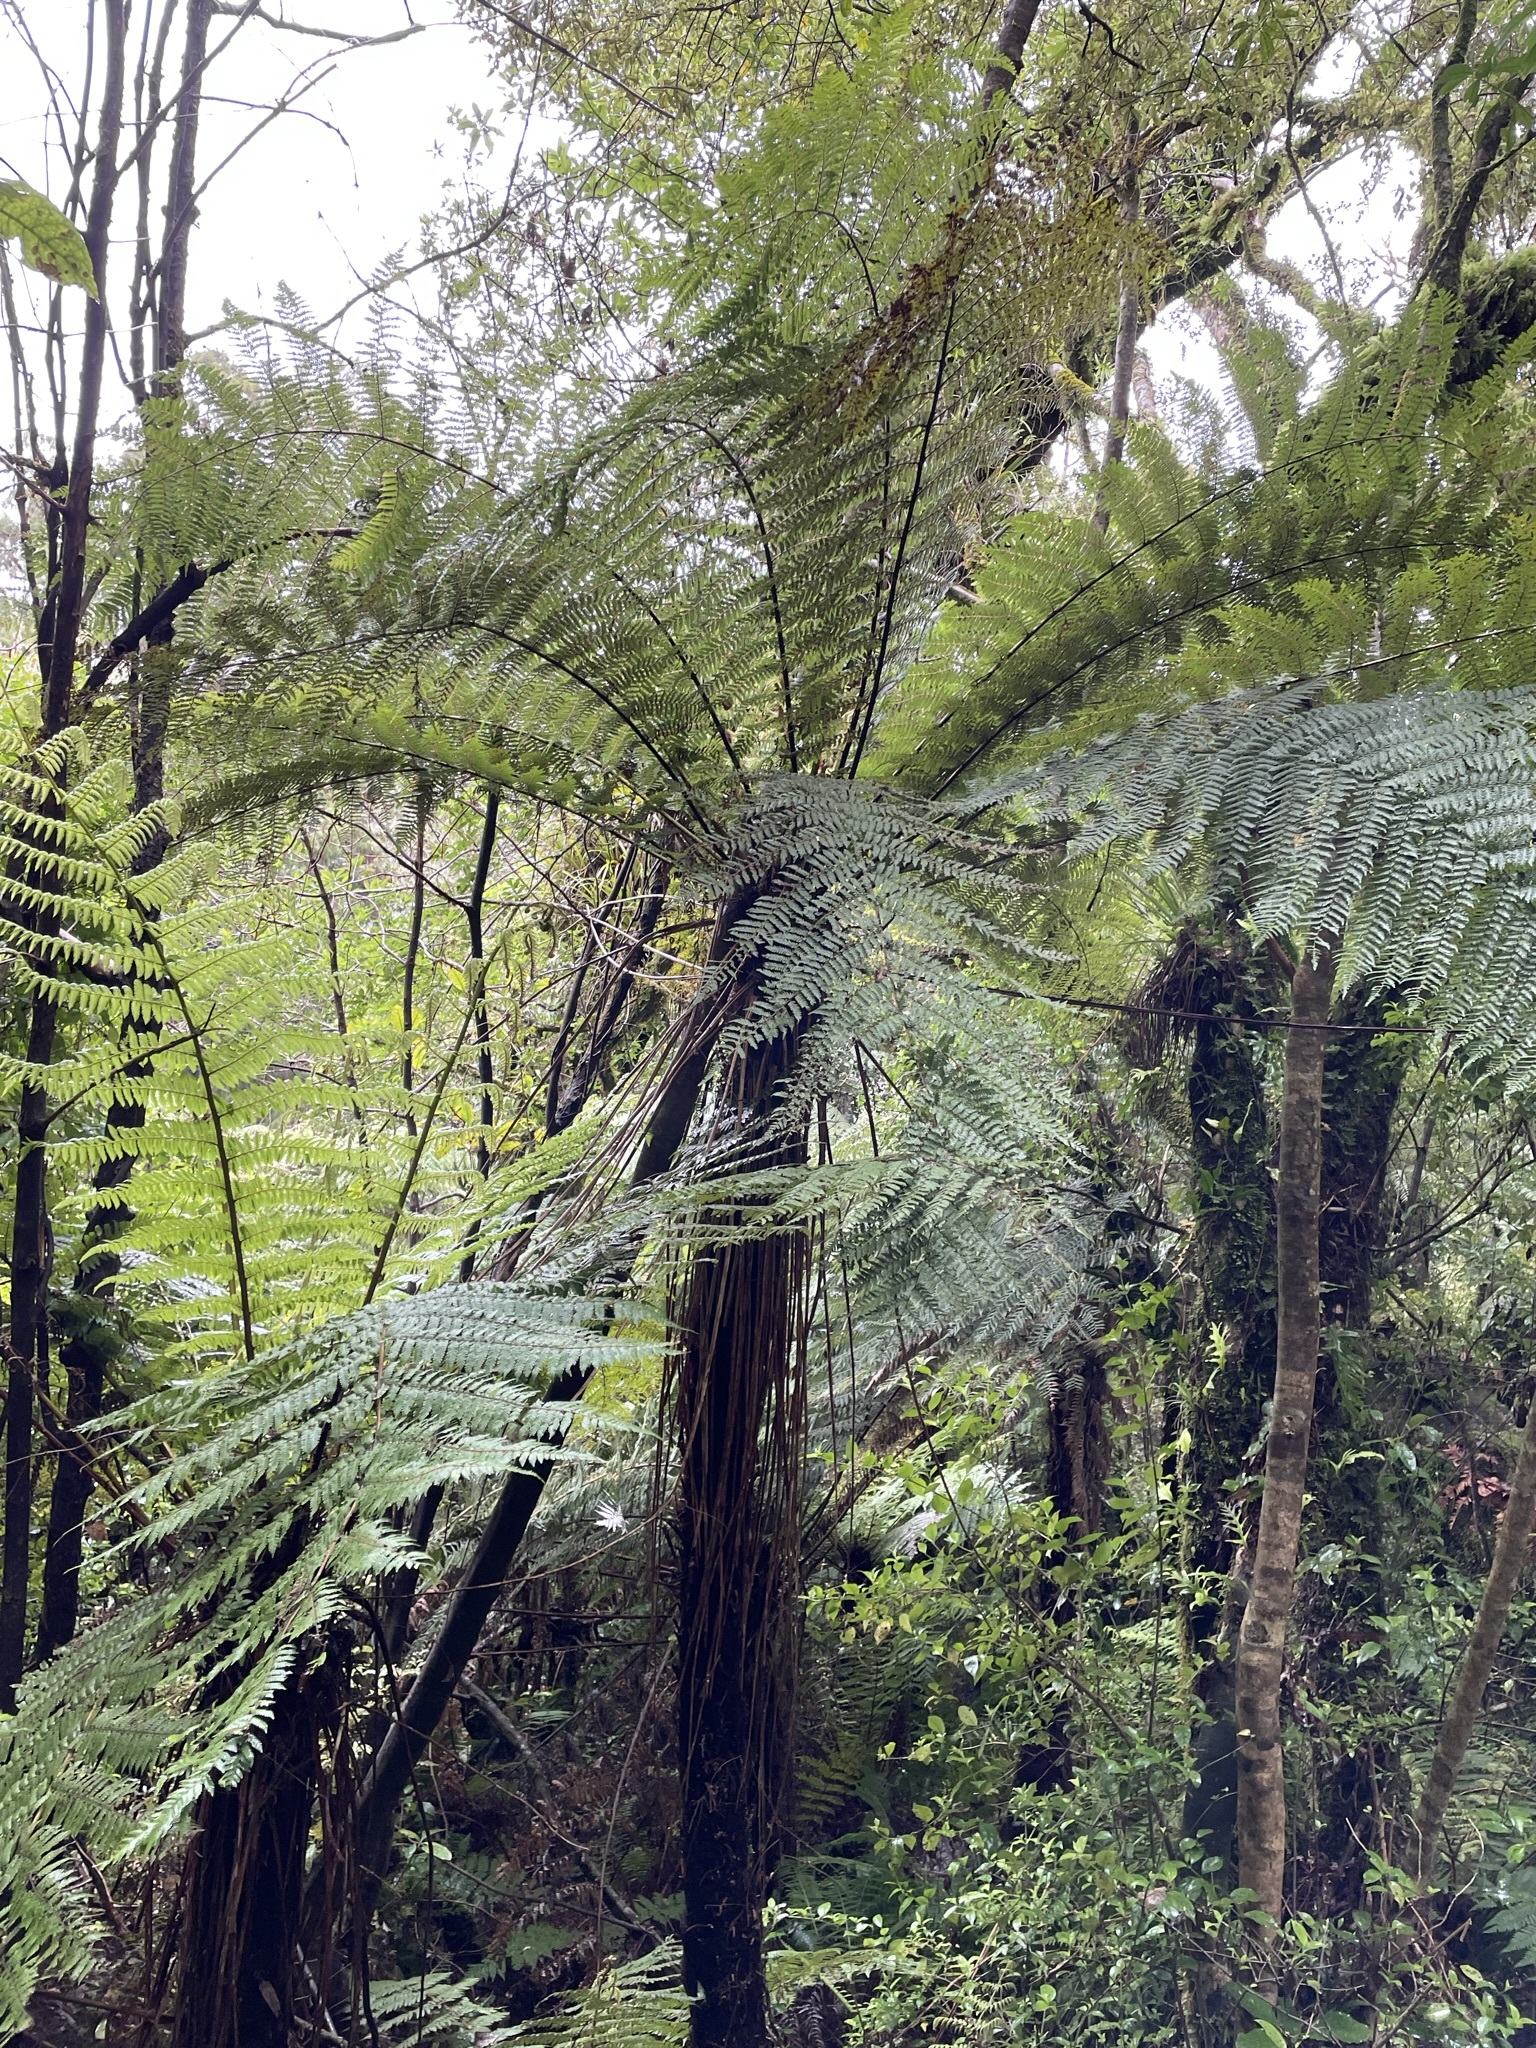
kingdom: Plantae
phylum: Tracheophyta
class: Polypodiopsida
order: Cyatheales
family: Cyatheaceae
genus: Alsophila
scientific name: Alsophila smithii
